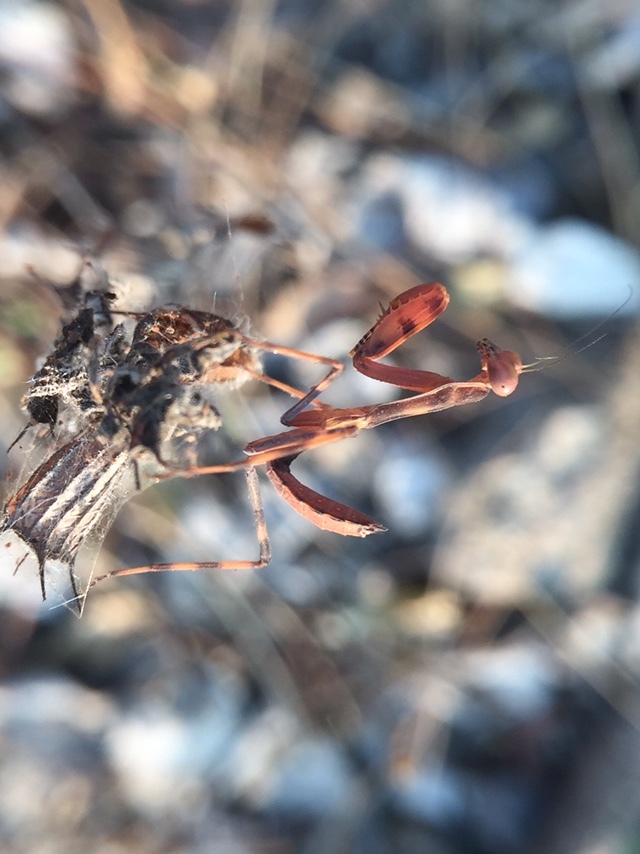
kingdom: Animalia
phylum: Arthropoda
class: Insecta
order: Mantodea
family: Mantidae
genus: Hierodula
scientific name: Hierodula tenuidentata
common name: Giant asian mantis
